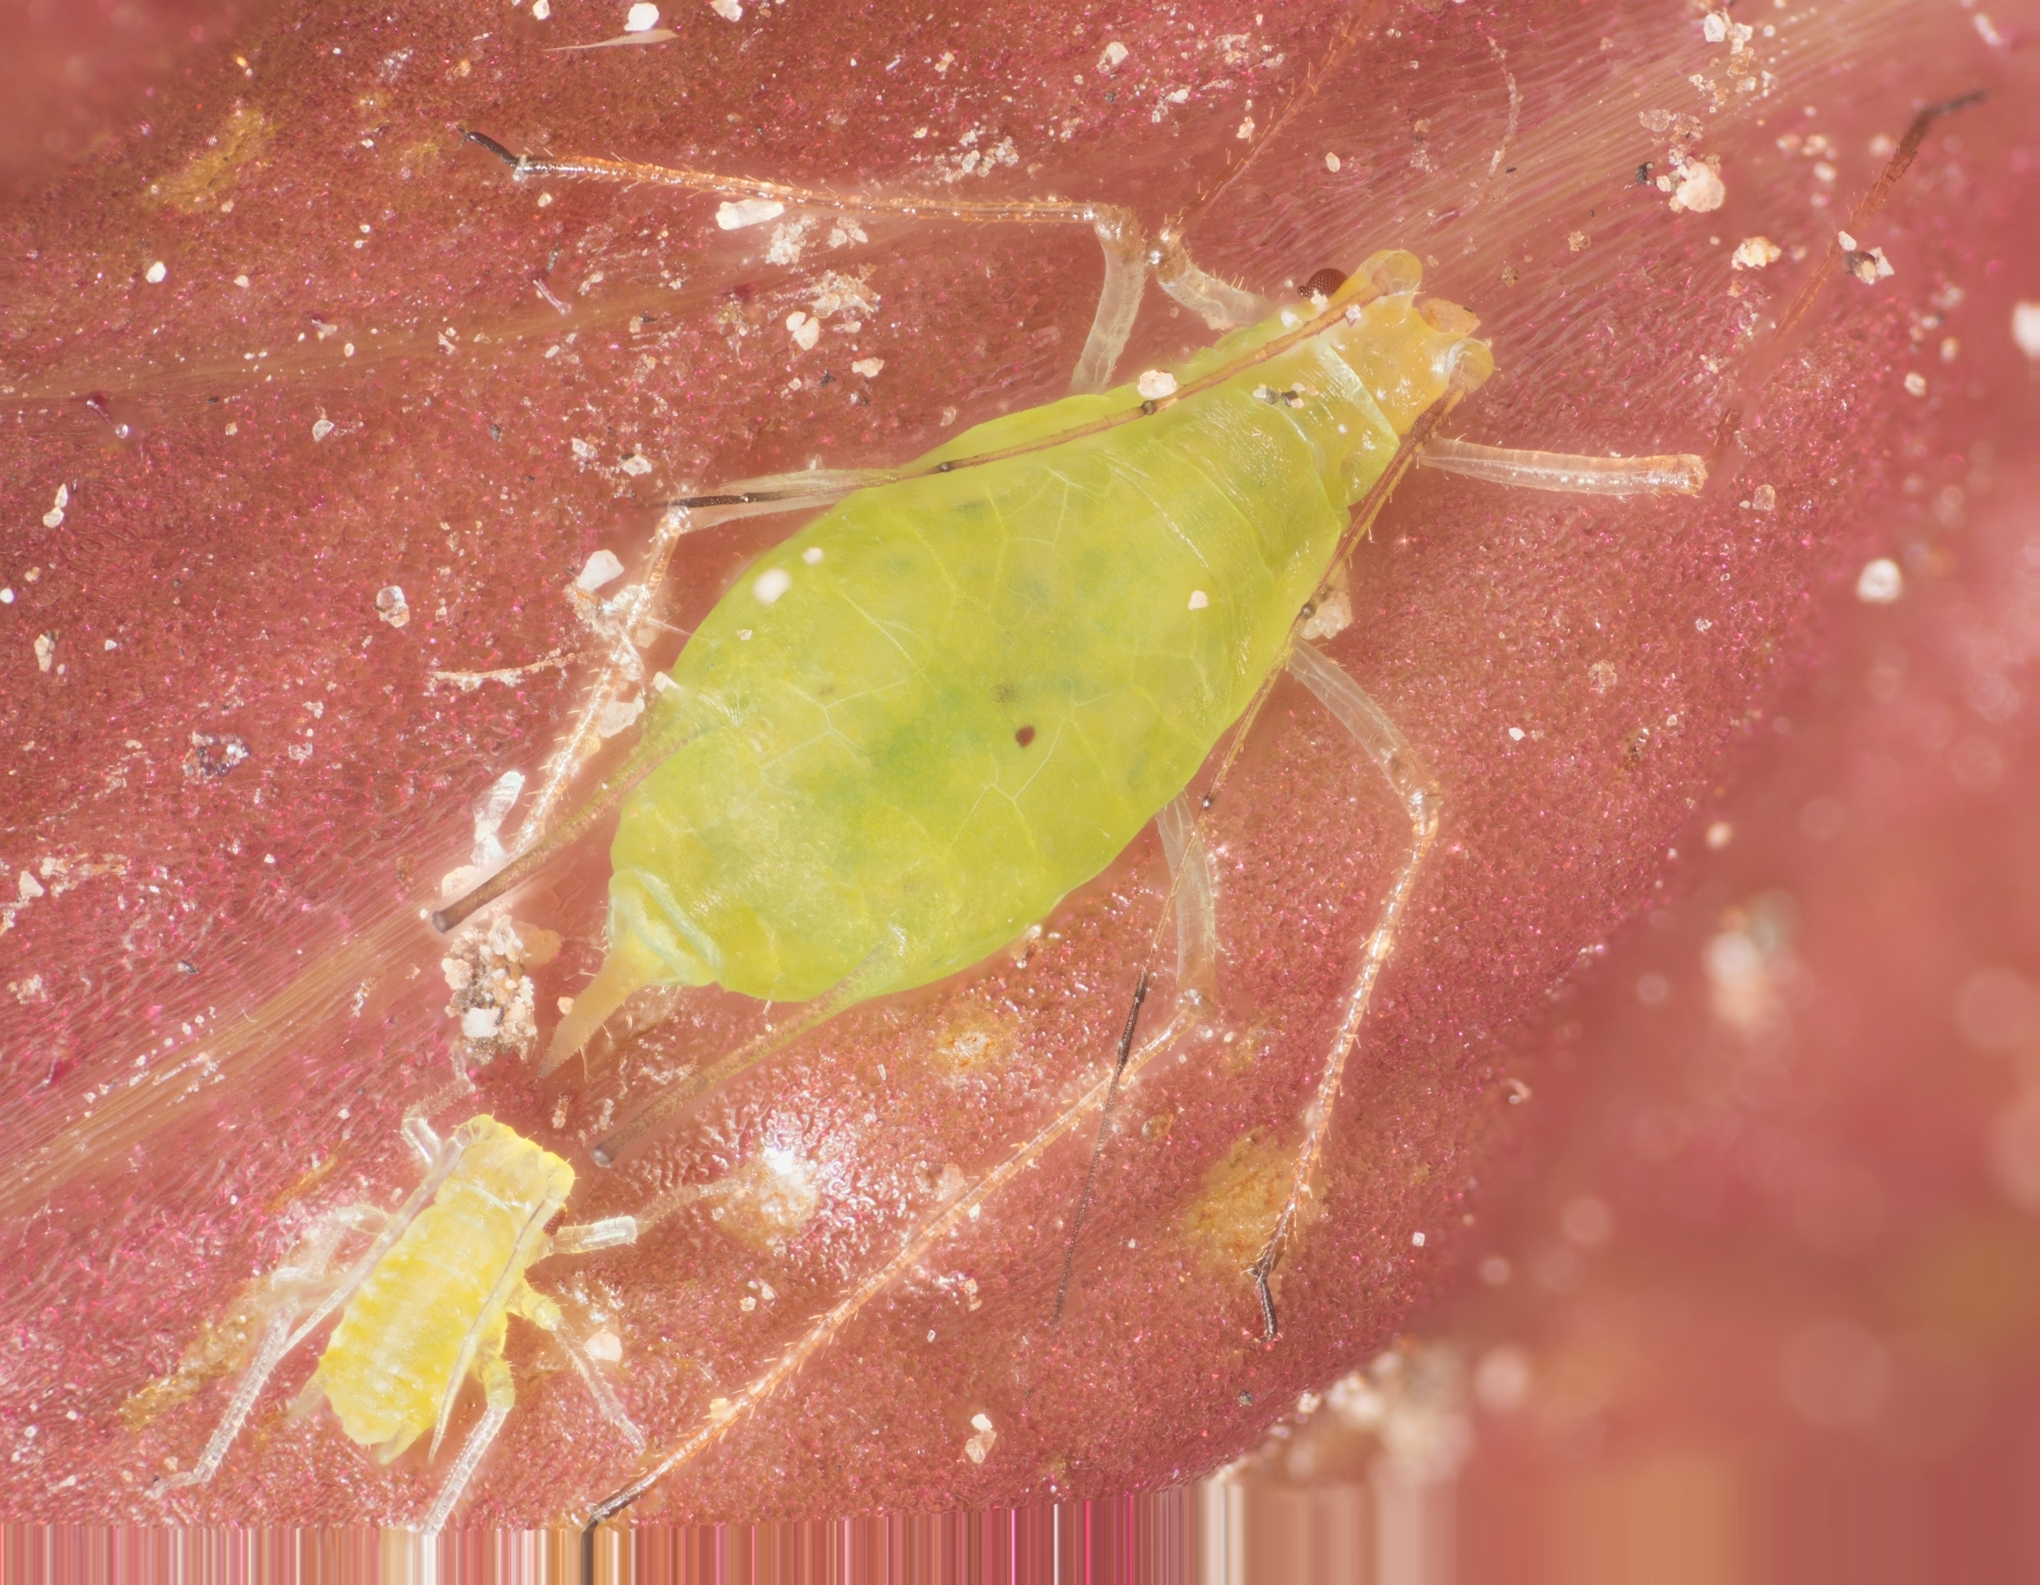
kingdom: Animalia
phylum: Arthropoda
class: Insecta
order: Hemiptera
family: Aphididae
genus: Macrosiphum
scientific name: Macrosiphum euphorbiae
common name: Potato aphid
